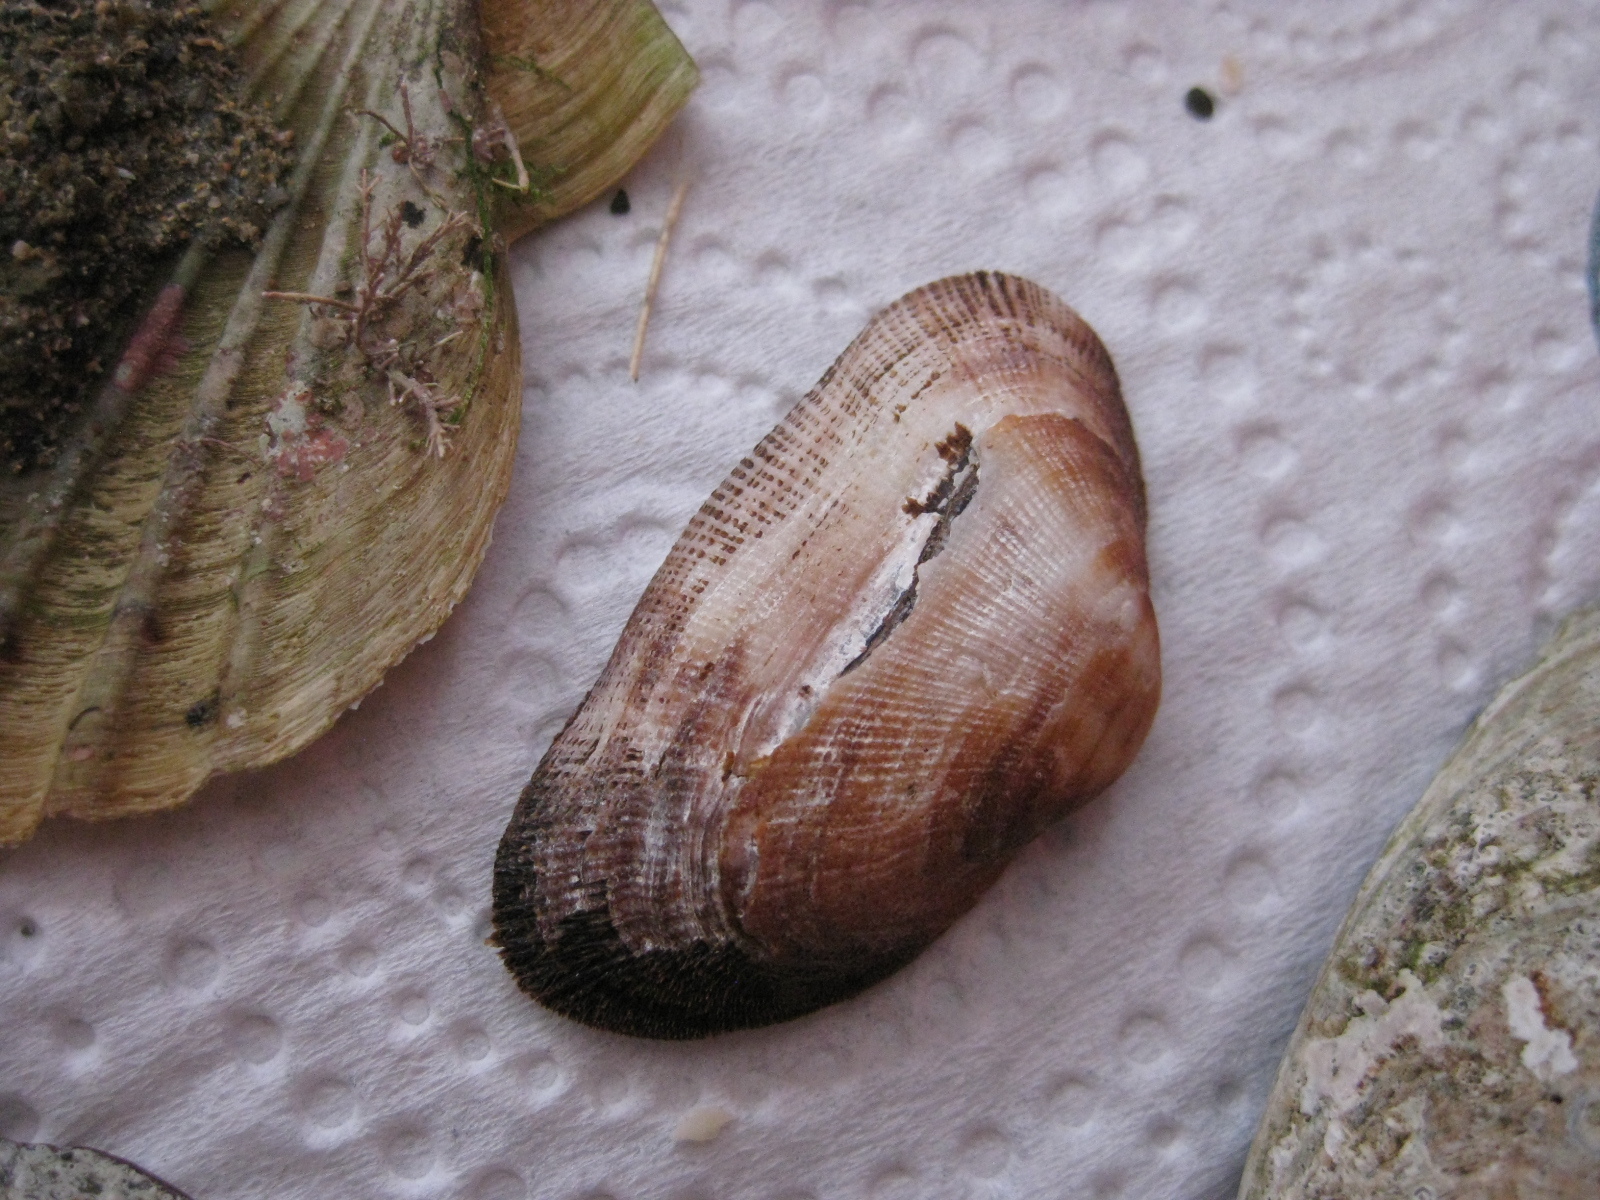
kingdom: Animalia
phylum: Mollusca
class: Bivalvia
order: Arcida
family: Arcidae
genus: Barbatia
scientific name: Barbatia novaezealandiae
